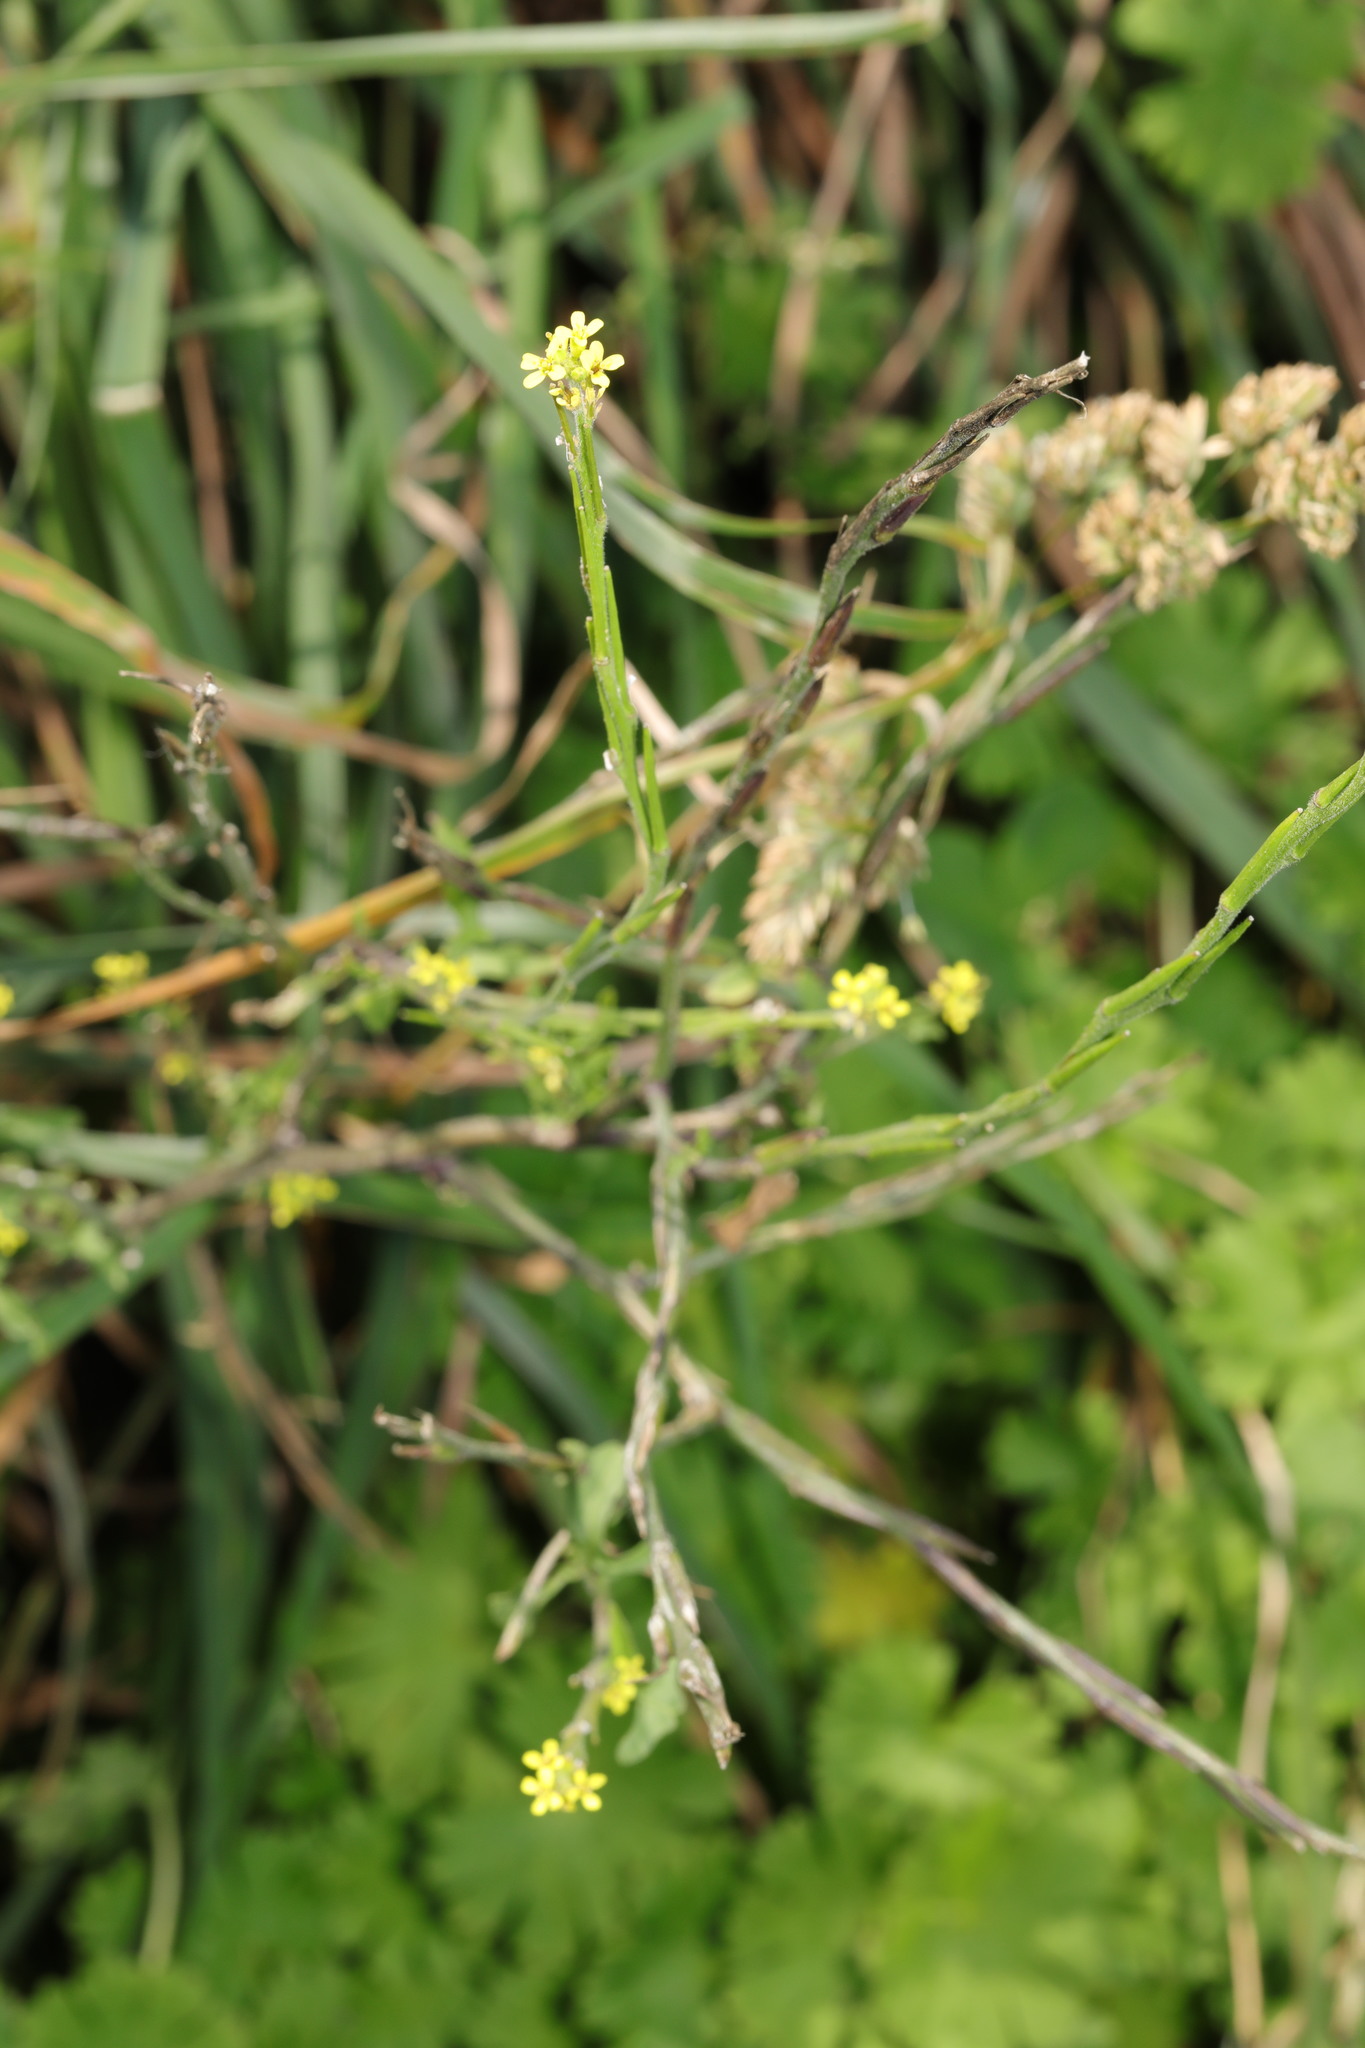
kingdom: Plantae
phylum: Tracheophyta
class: Magnoliopsida
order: Brassicales
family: Brassicaceae
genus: Sisymbrium
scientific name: Sisymbrium officinale
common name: Hedge mustard
